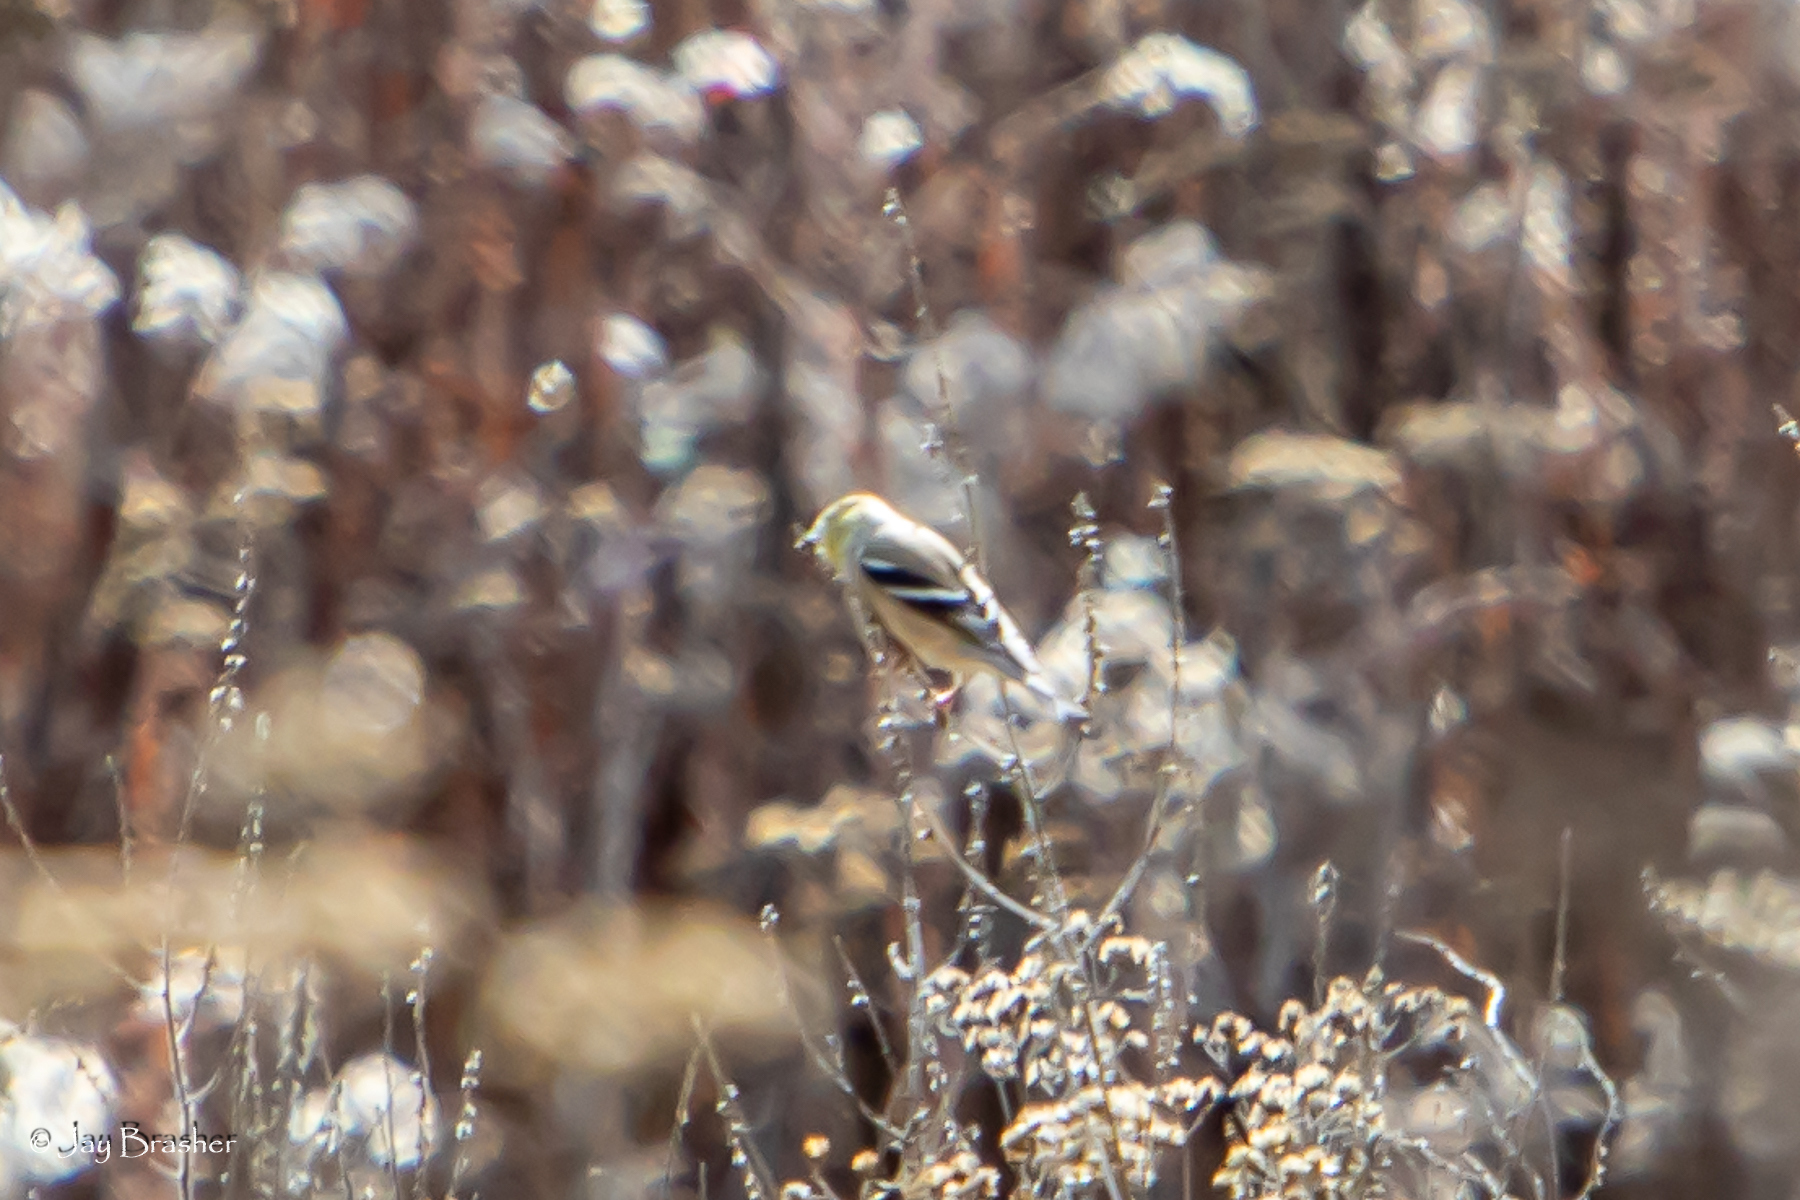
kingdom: Animalia
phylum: Chordata
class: Aves
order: Passeriformes
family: Fringillidae
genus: Spinus
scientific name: Spinus tristis
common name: American goldfinch
